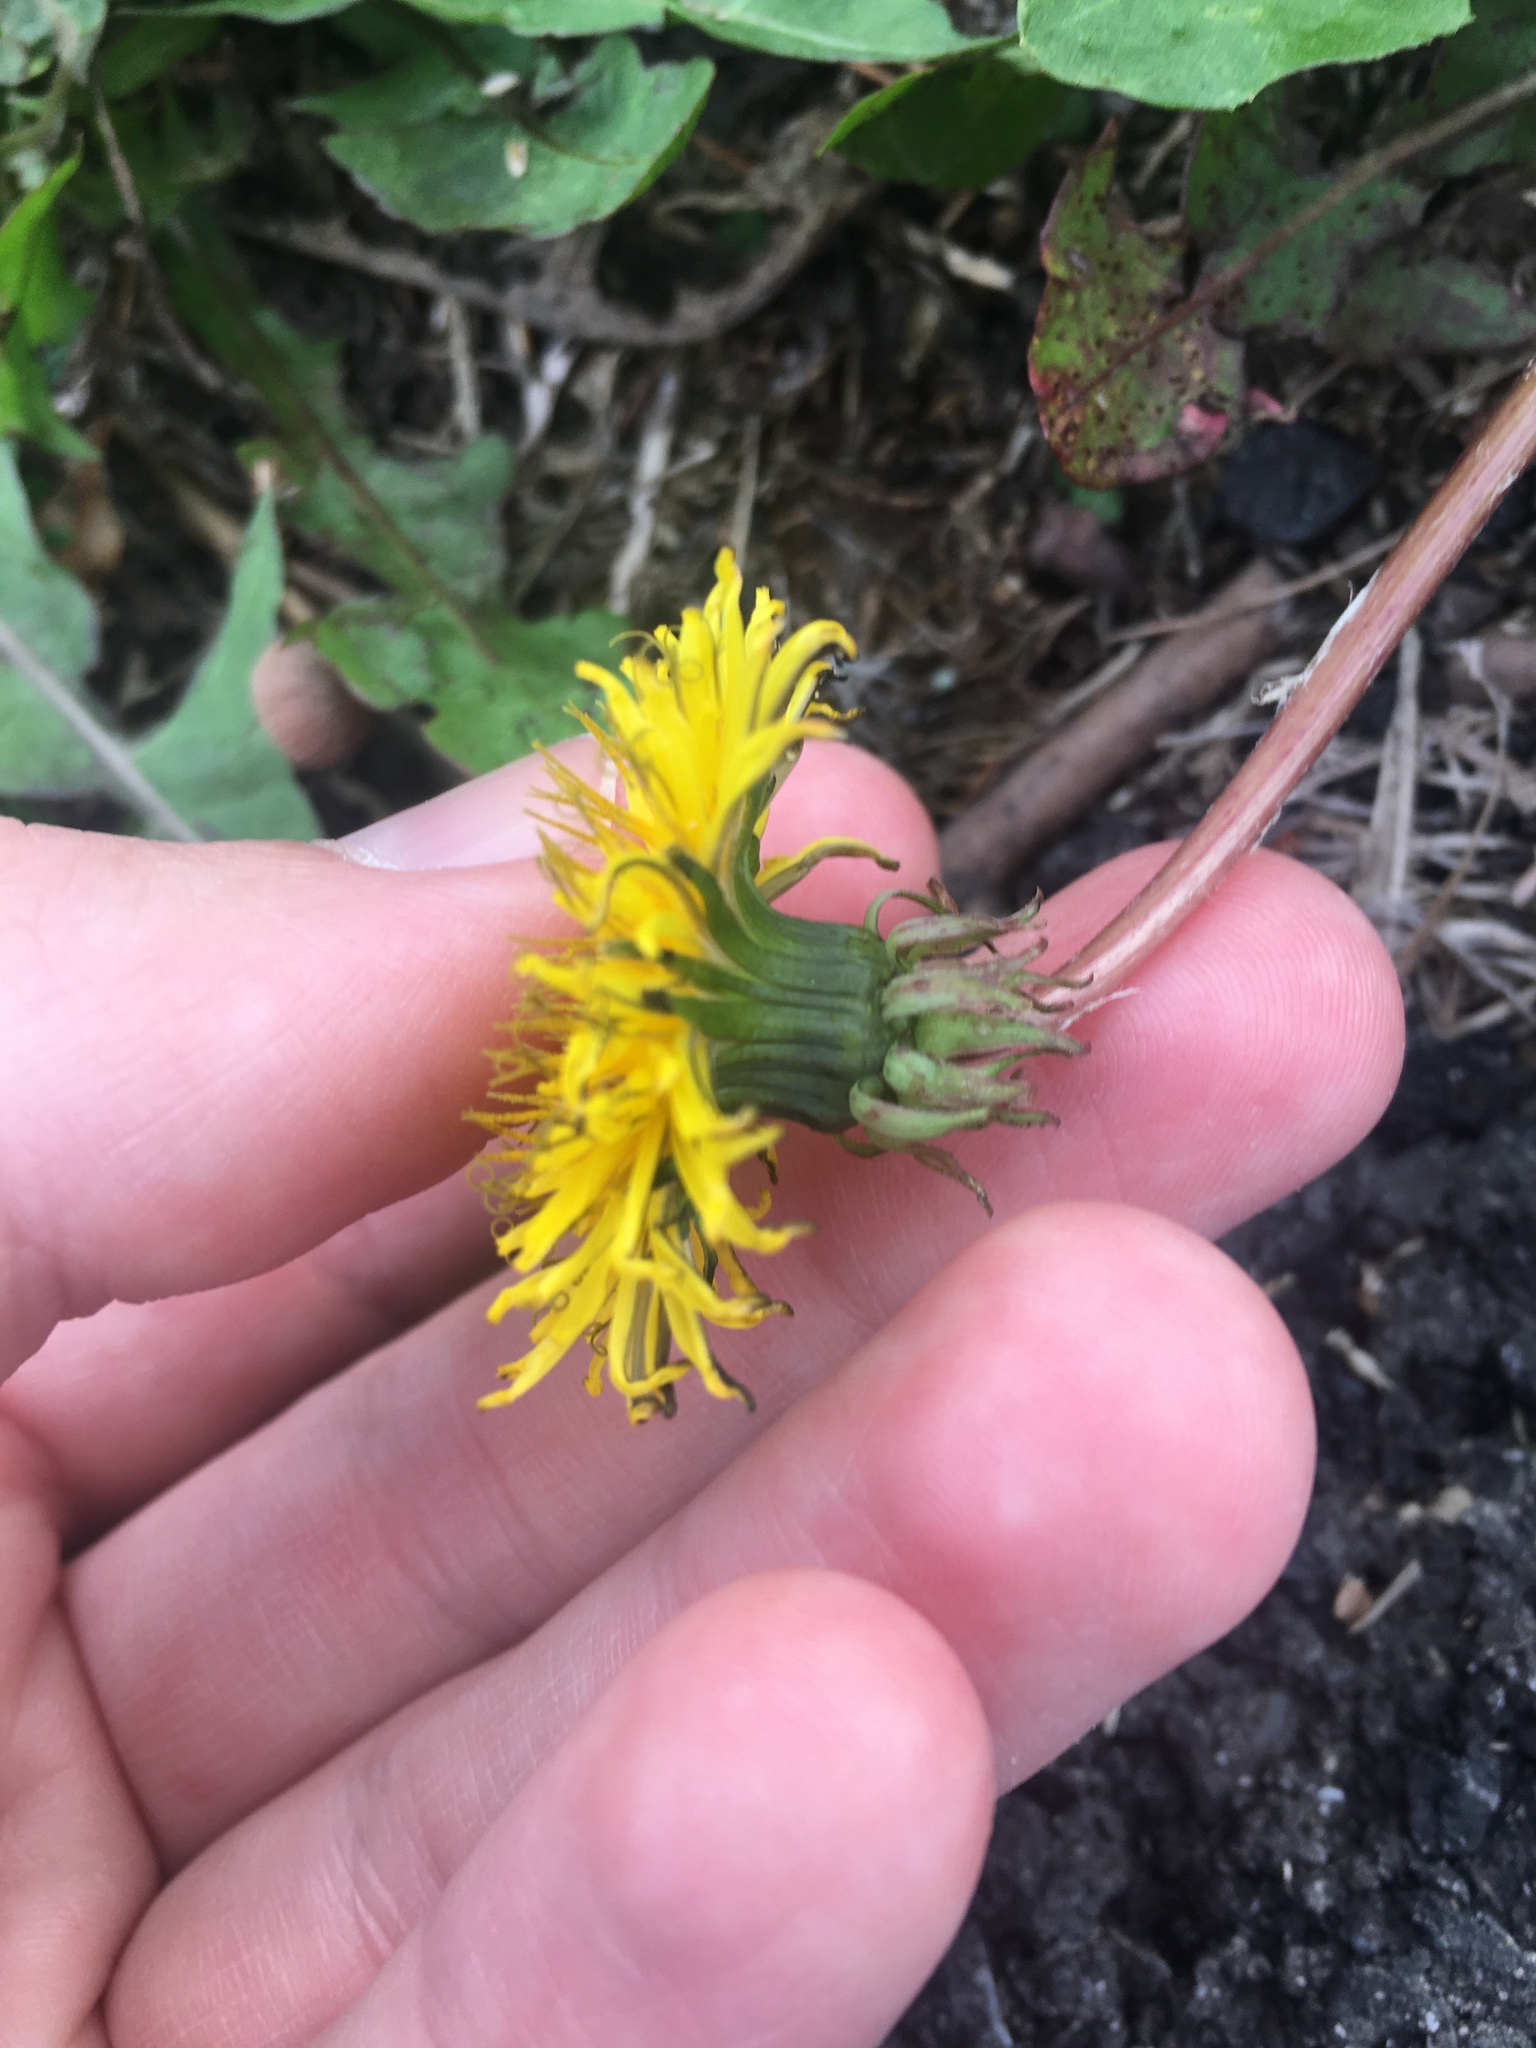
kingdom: Plantae
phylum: Tracheophyta
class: Magnoliopsida
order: Asterales
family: Asteraceae
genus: Taraxacum
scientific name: Taraxacum officinale
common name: Common dandelion
